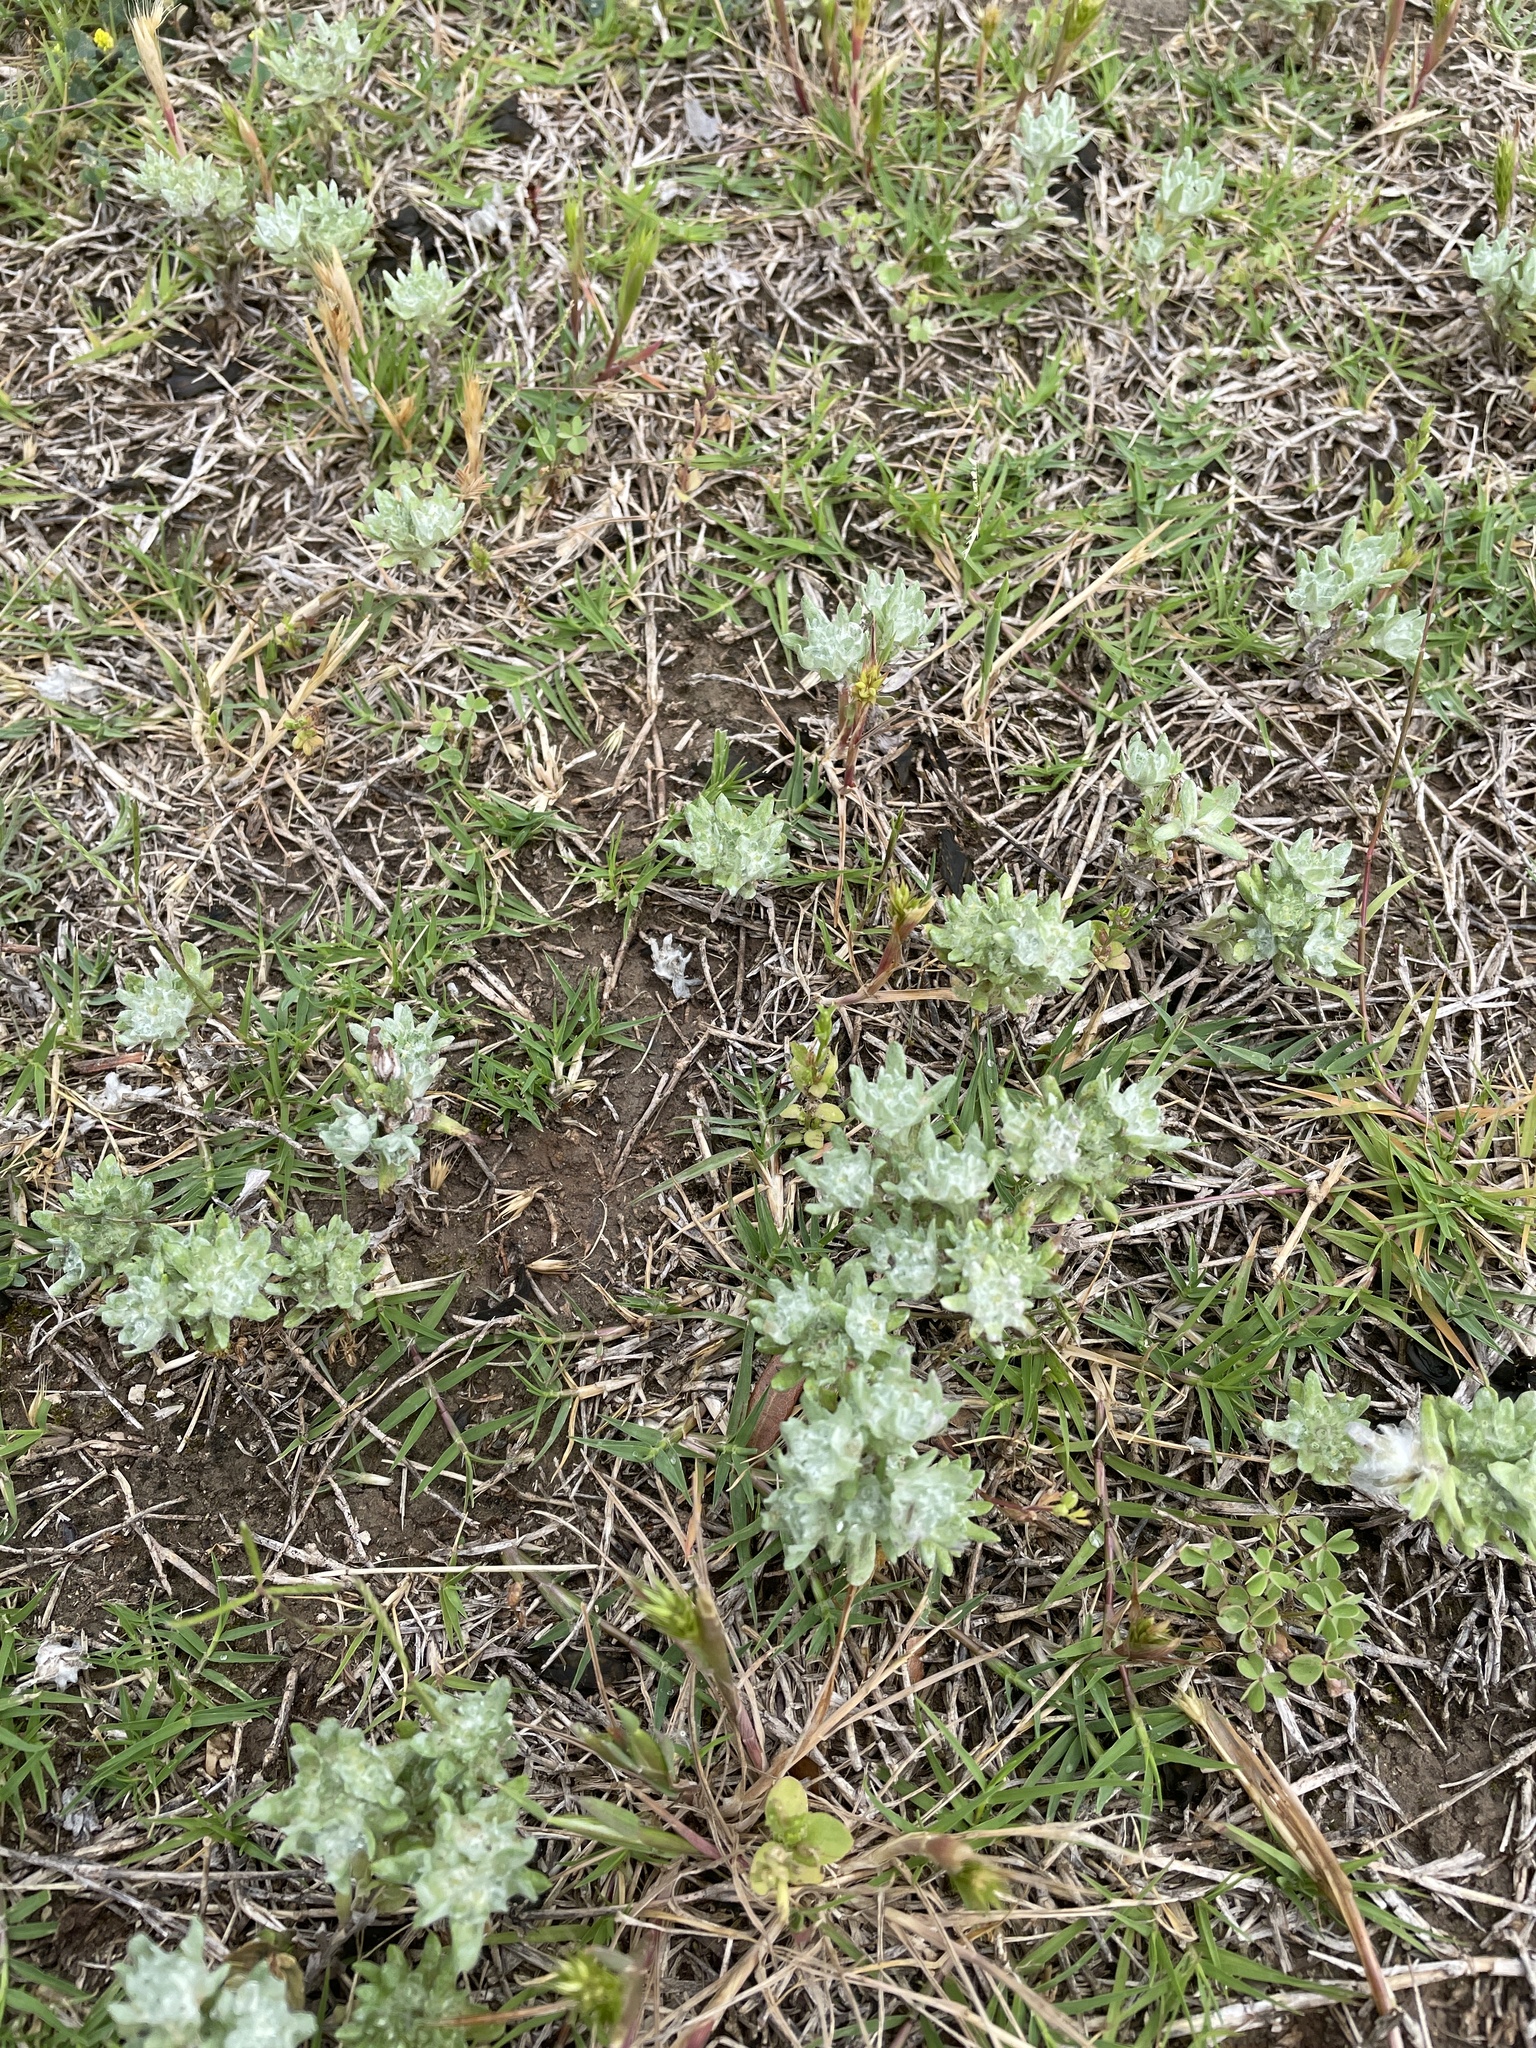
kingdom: Plantae
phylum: Tracheophyta
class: Magnoliopsida
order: Asterales
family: Asteraceae
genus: Diaperia
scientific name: Diaperia prolifera
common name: Big-head rabbit-tobacco
